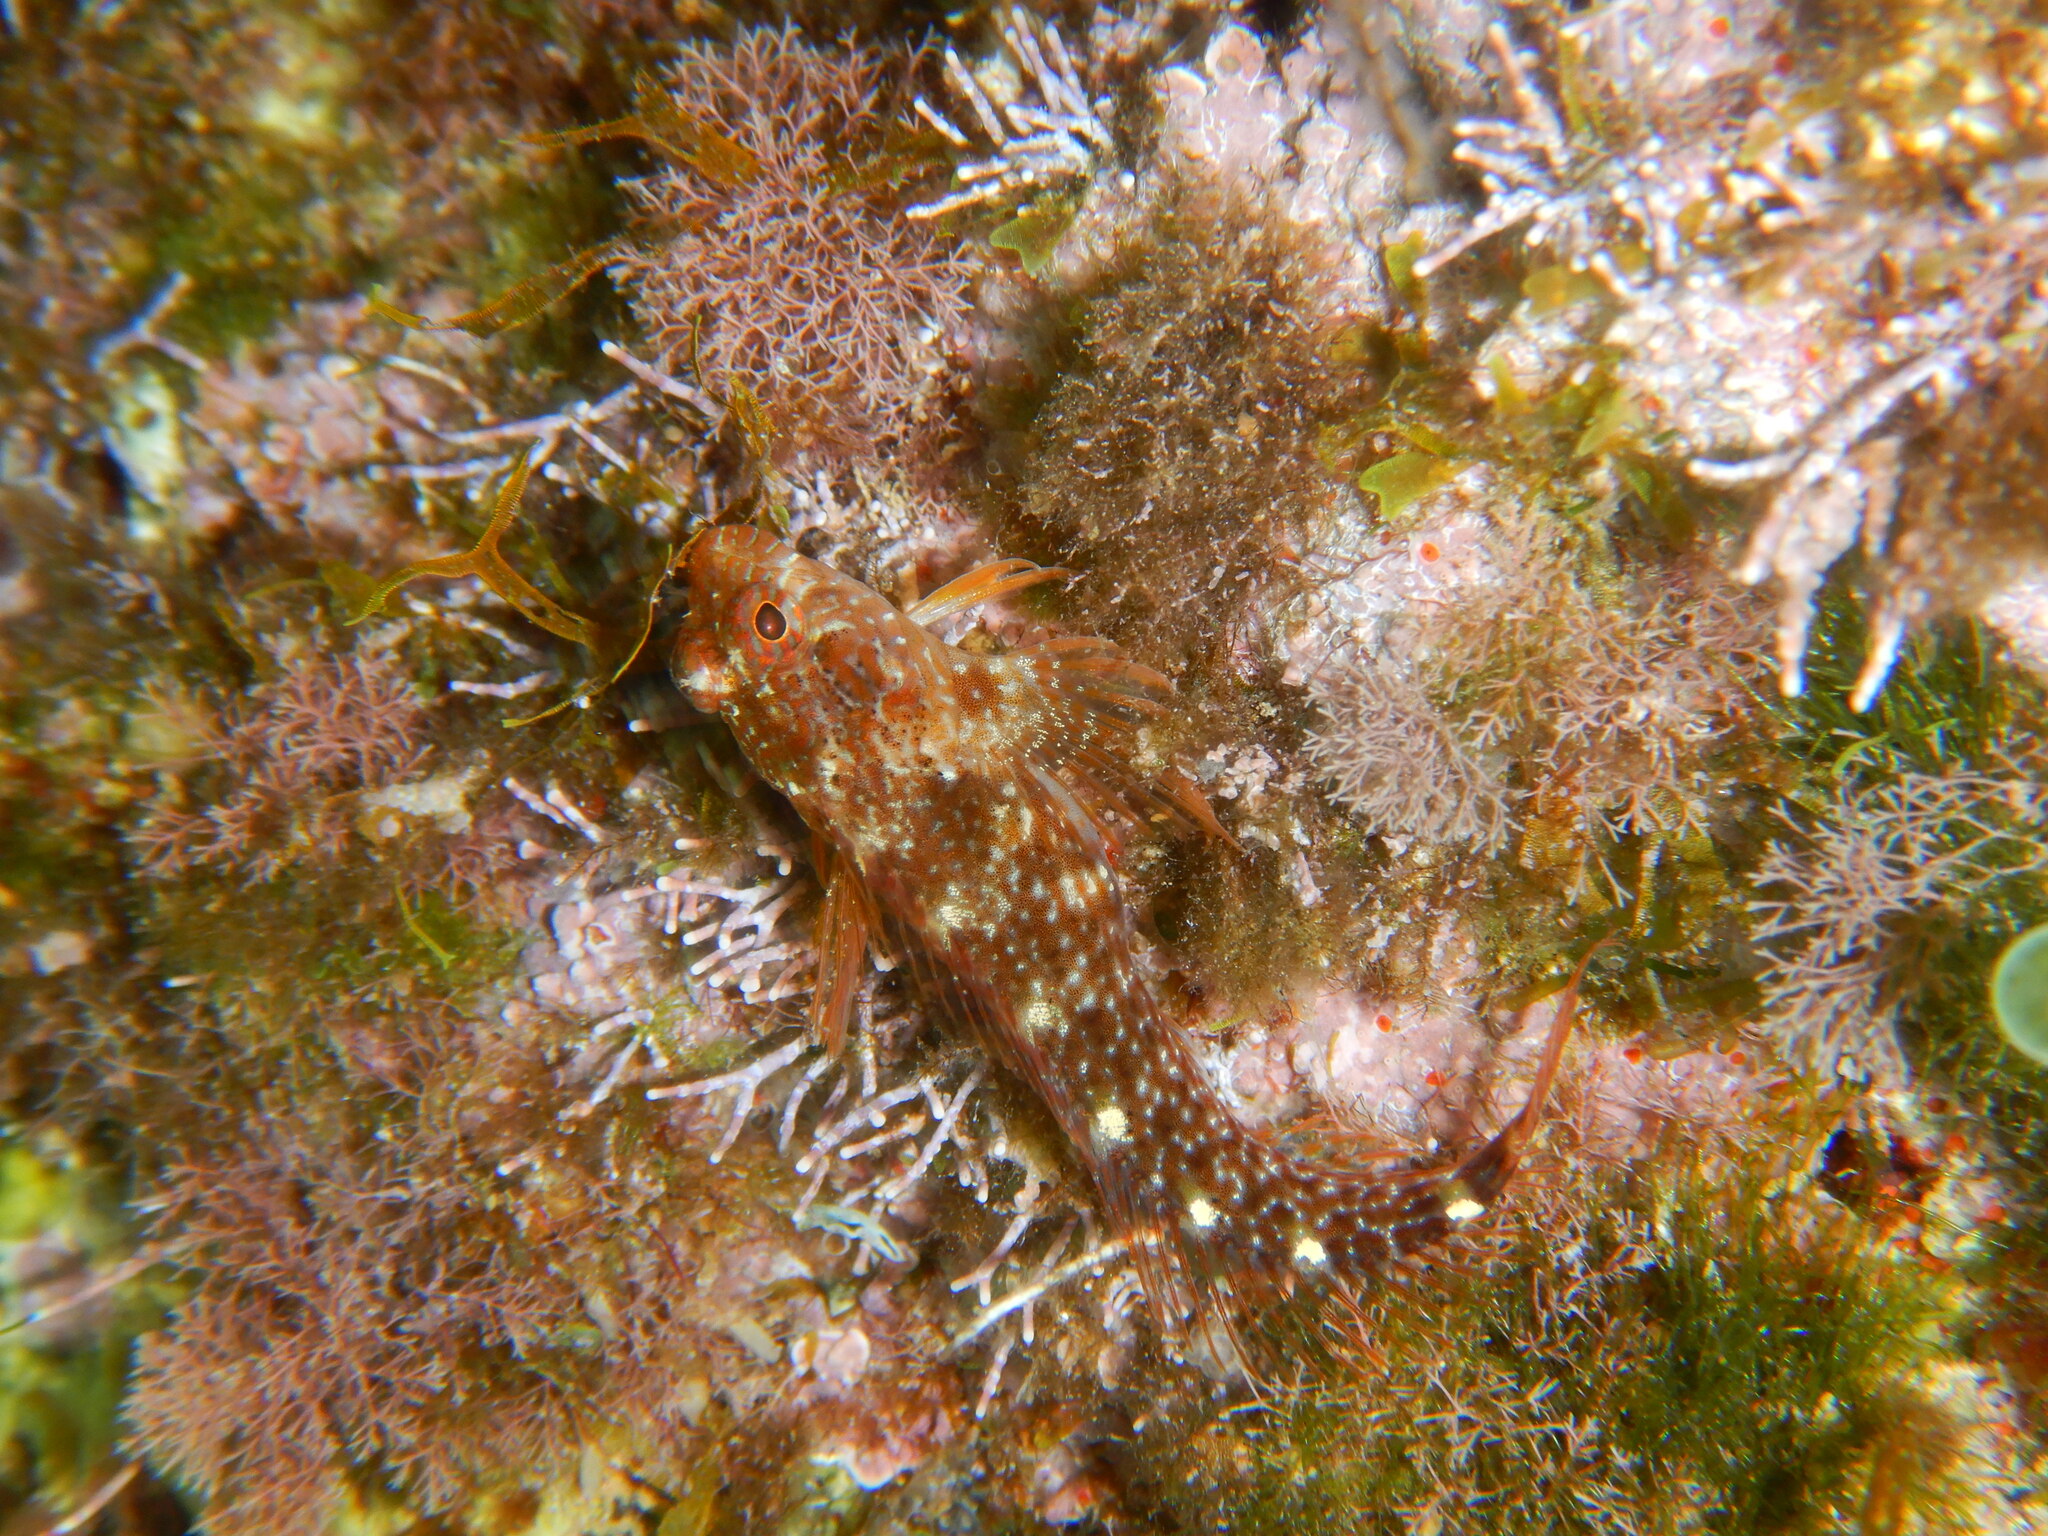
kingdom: Animalia
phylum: Chordata
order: Perciformes
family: Blenniidae
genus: Parablennius
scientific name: Parablennius zvonimiri
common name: Red blenny
